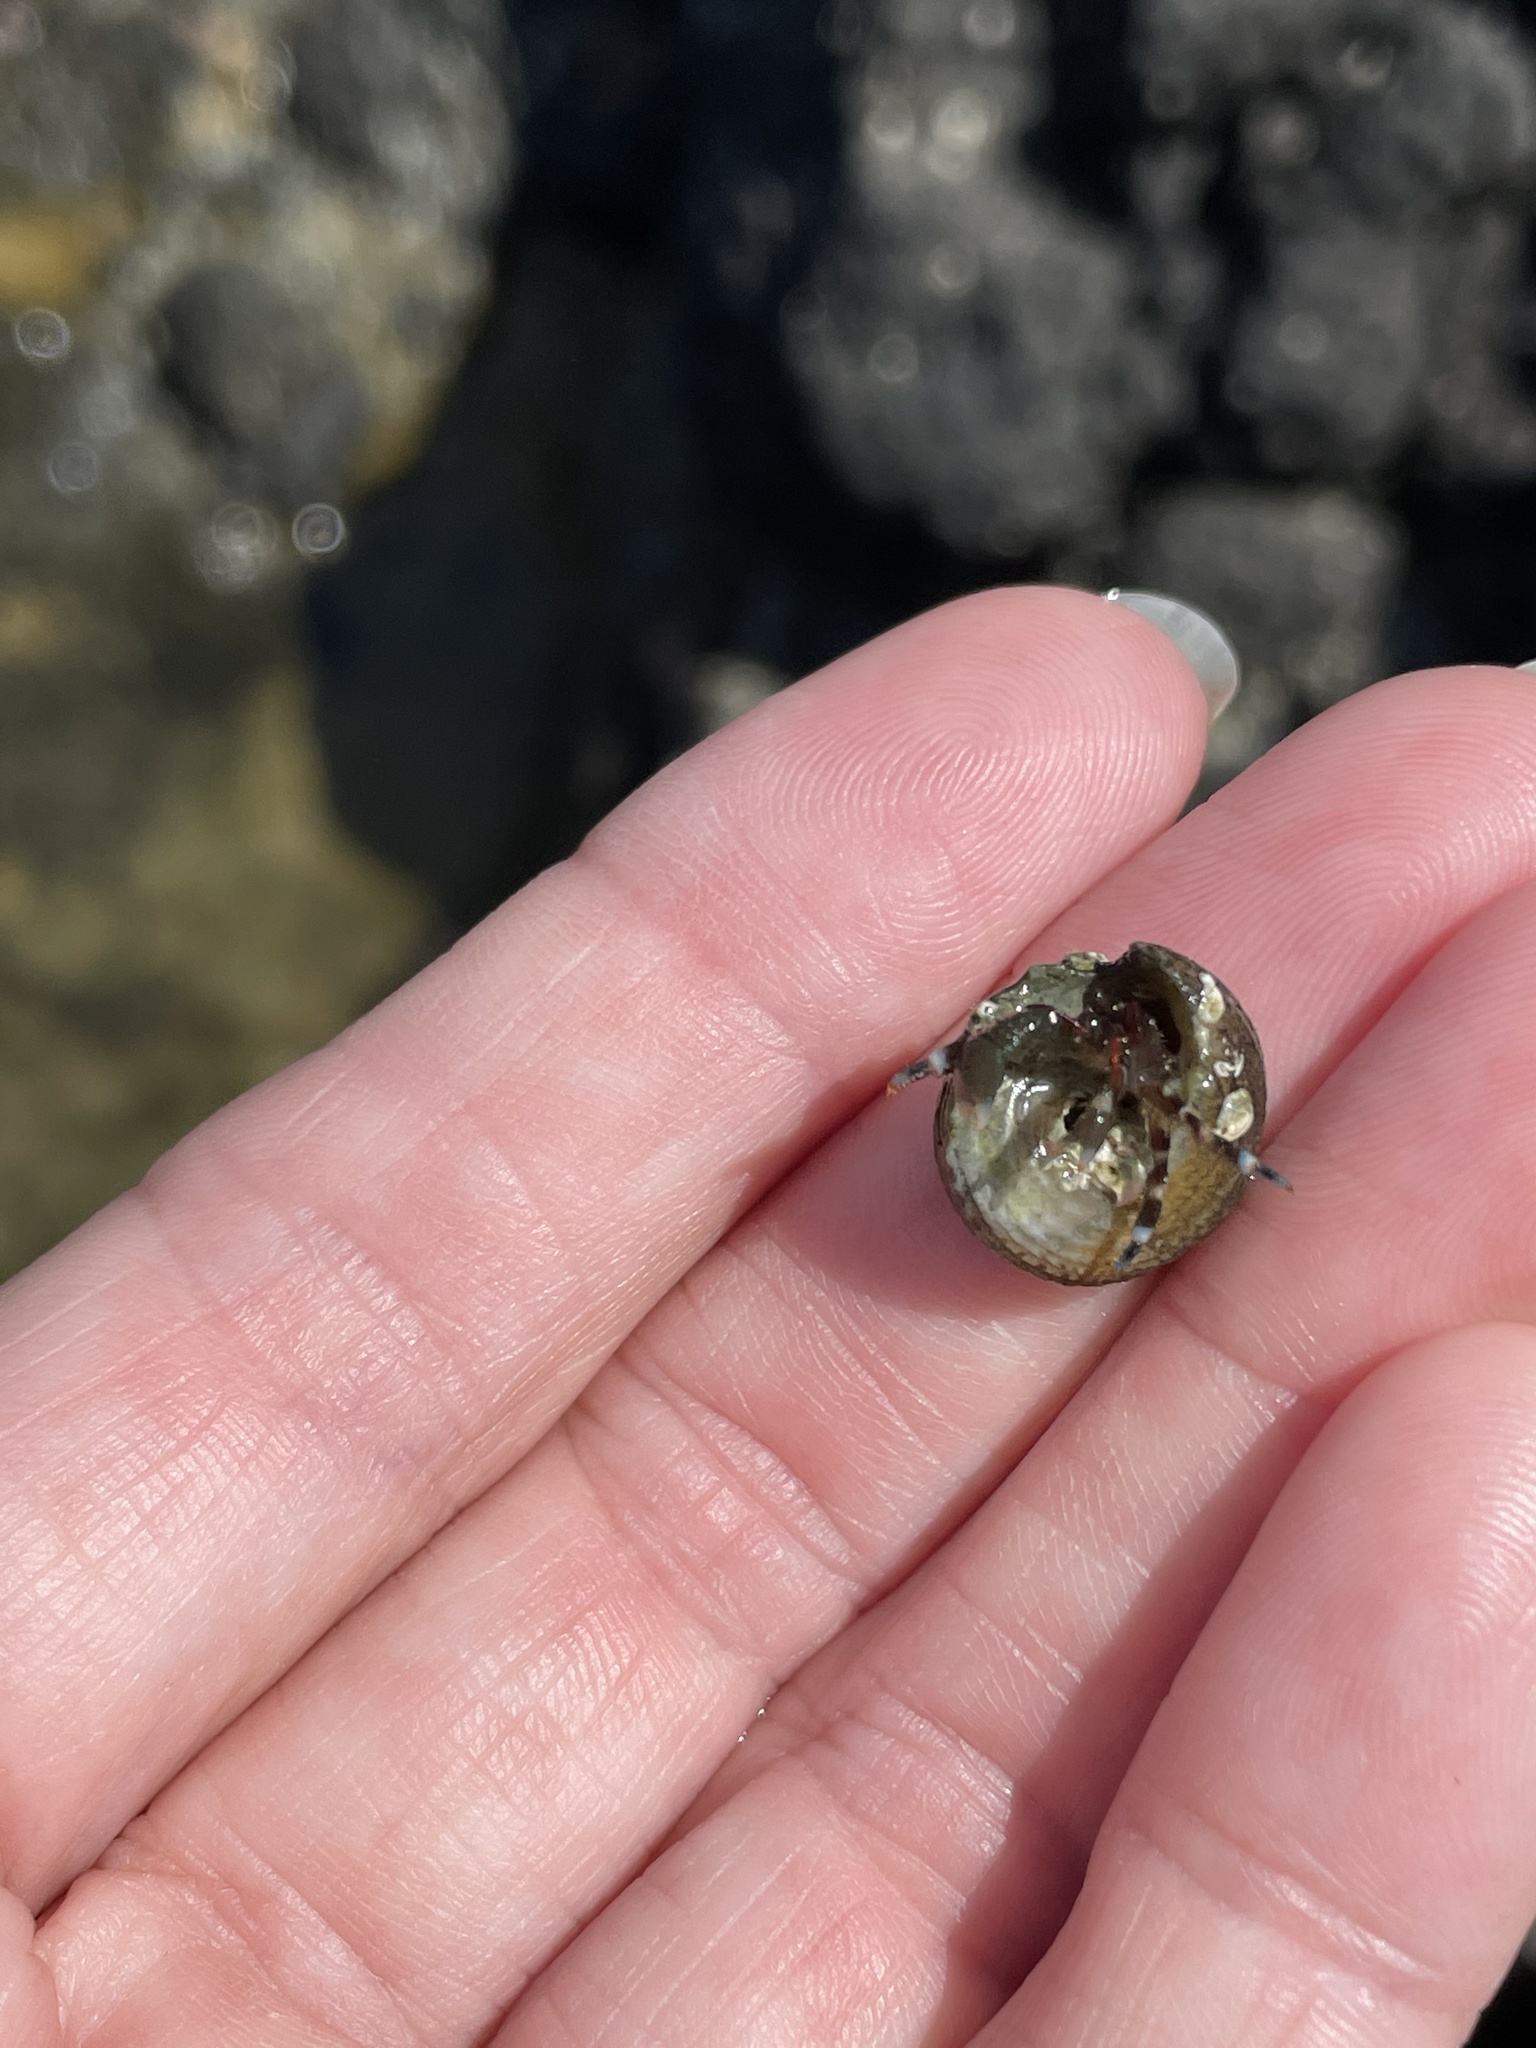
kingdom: Animalia
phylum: Arthropoda
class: Malacostraca
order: Decapoda
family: Paguridae
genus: Pagurus
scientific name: Pagurus samuelis
